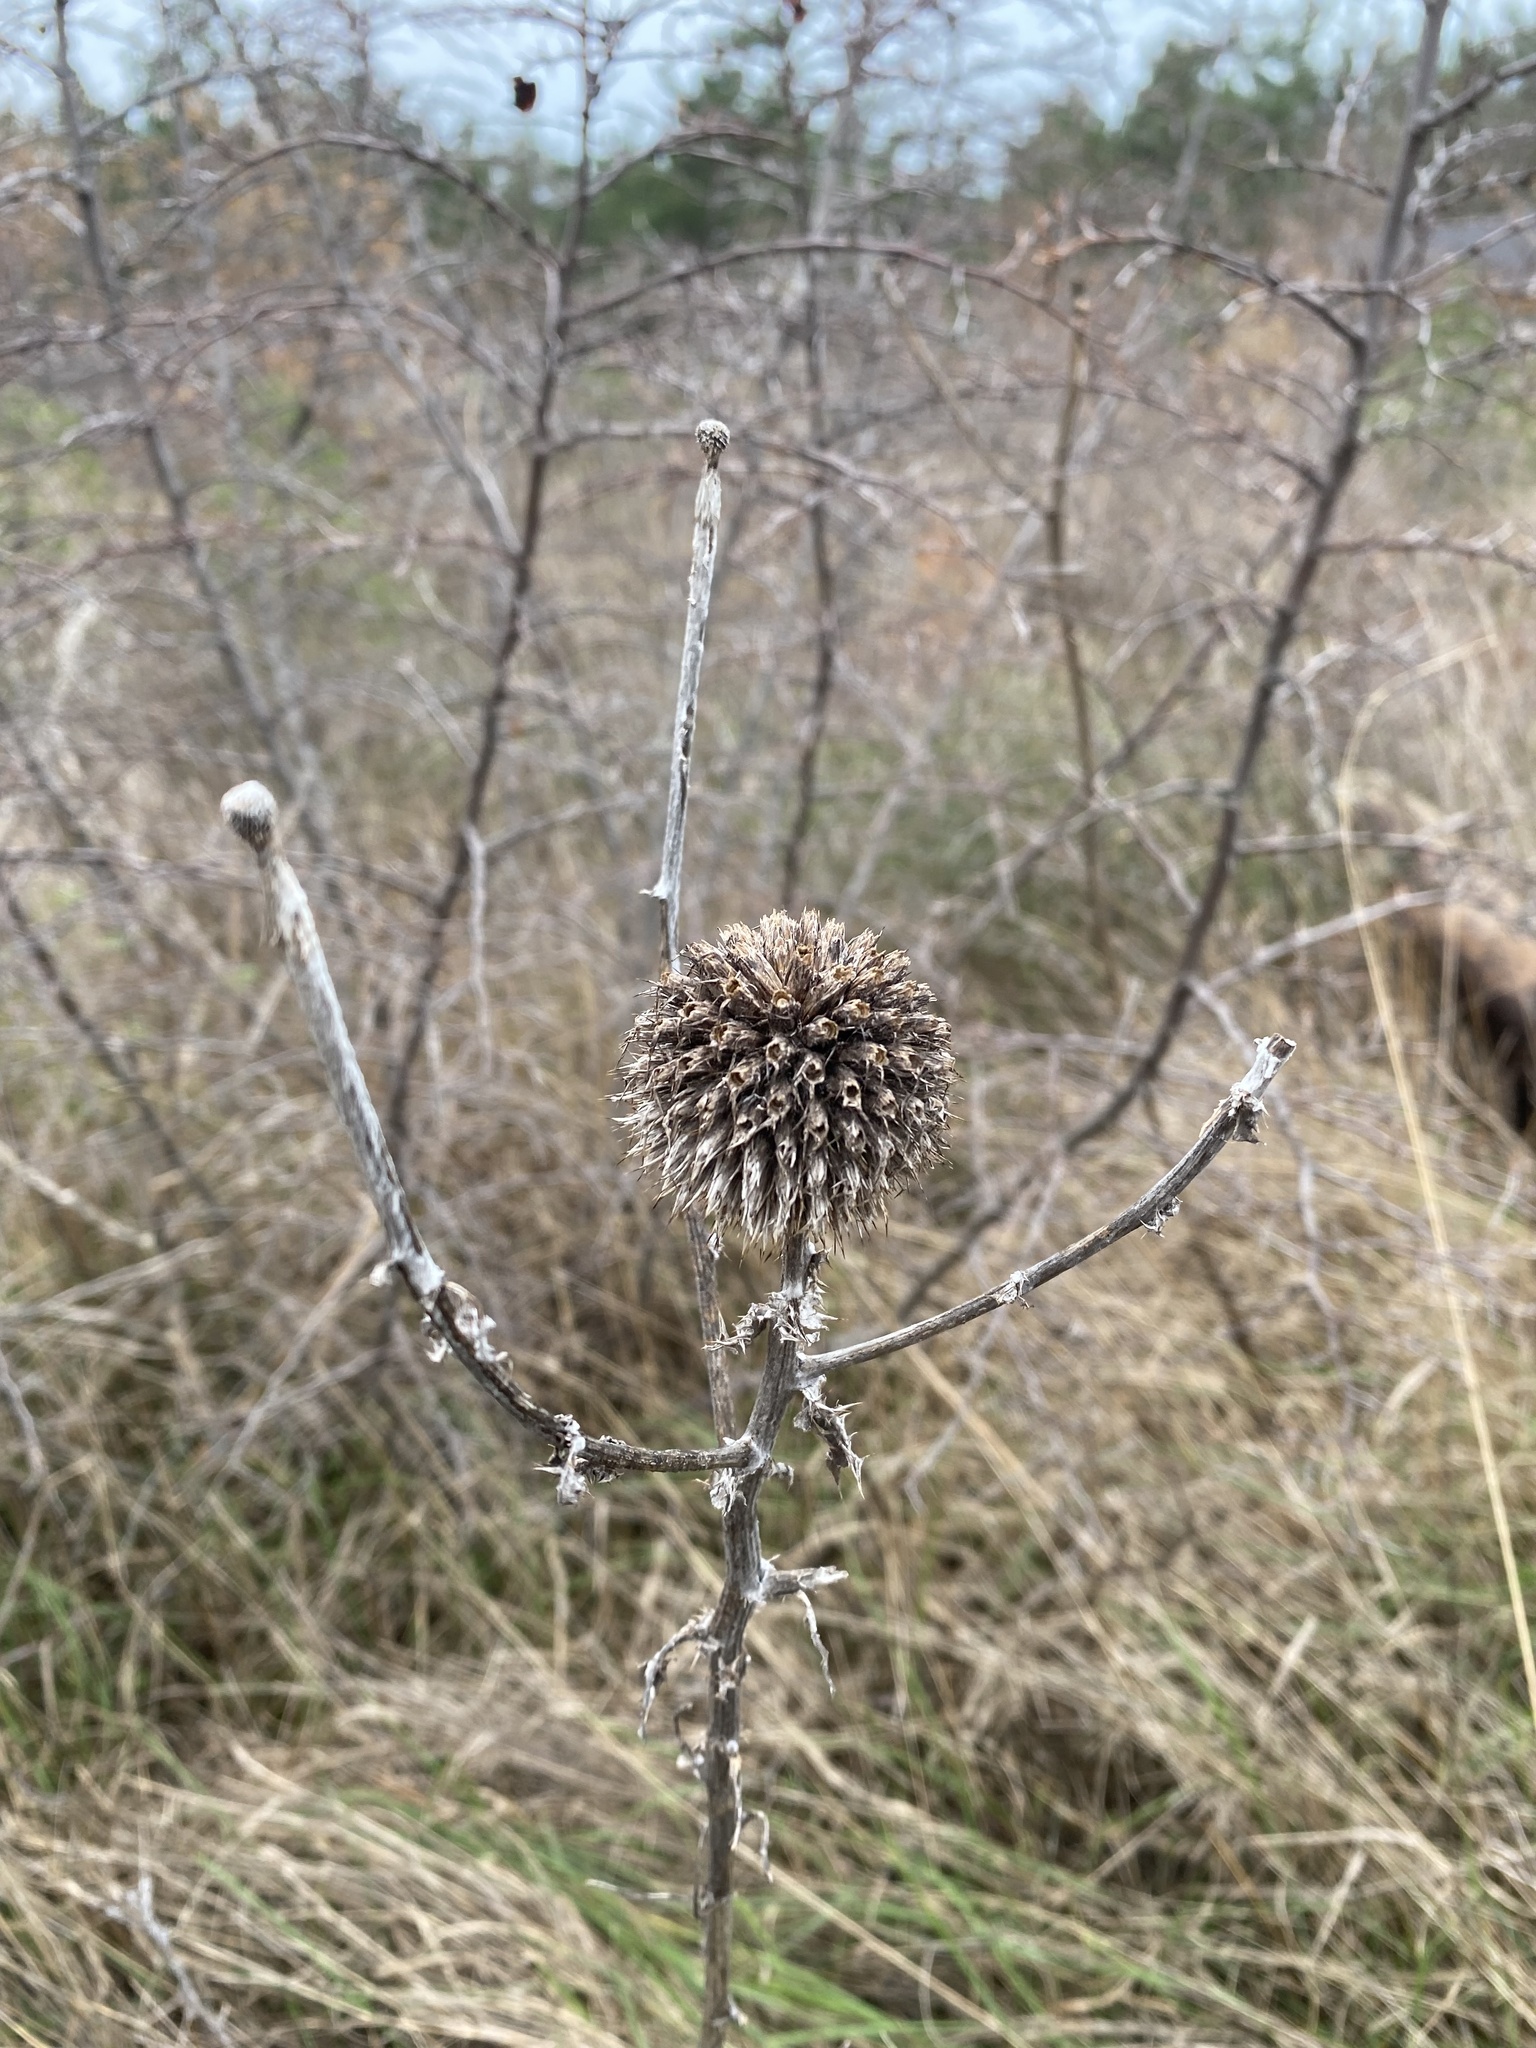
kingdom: Plantae
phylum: Tracheophyta
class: Magnoliopsida
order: Asterales
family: Asteraceae
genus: Echinops
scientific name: Echinops sphaerocephalus
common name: Glandular globe-thistle
